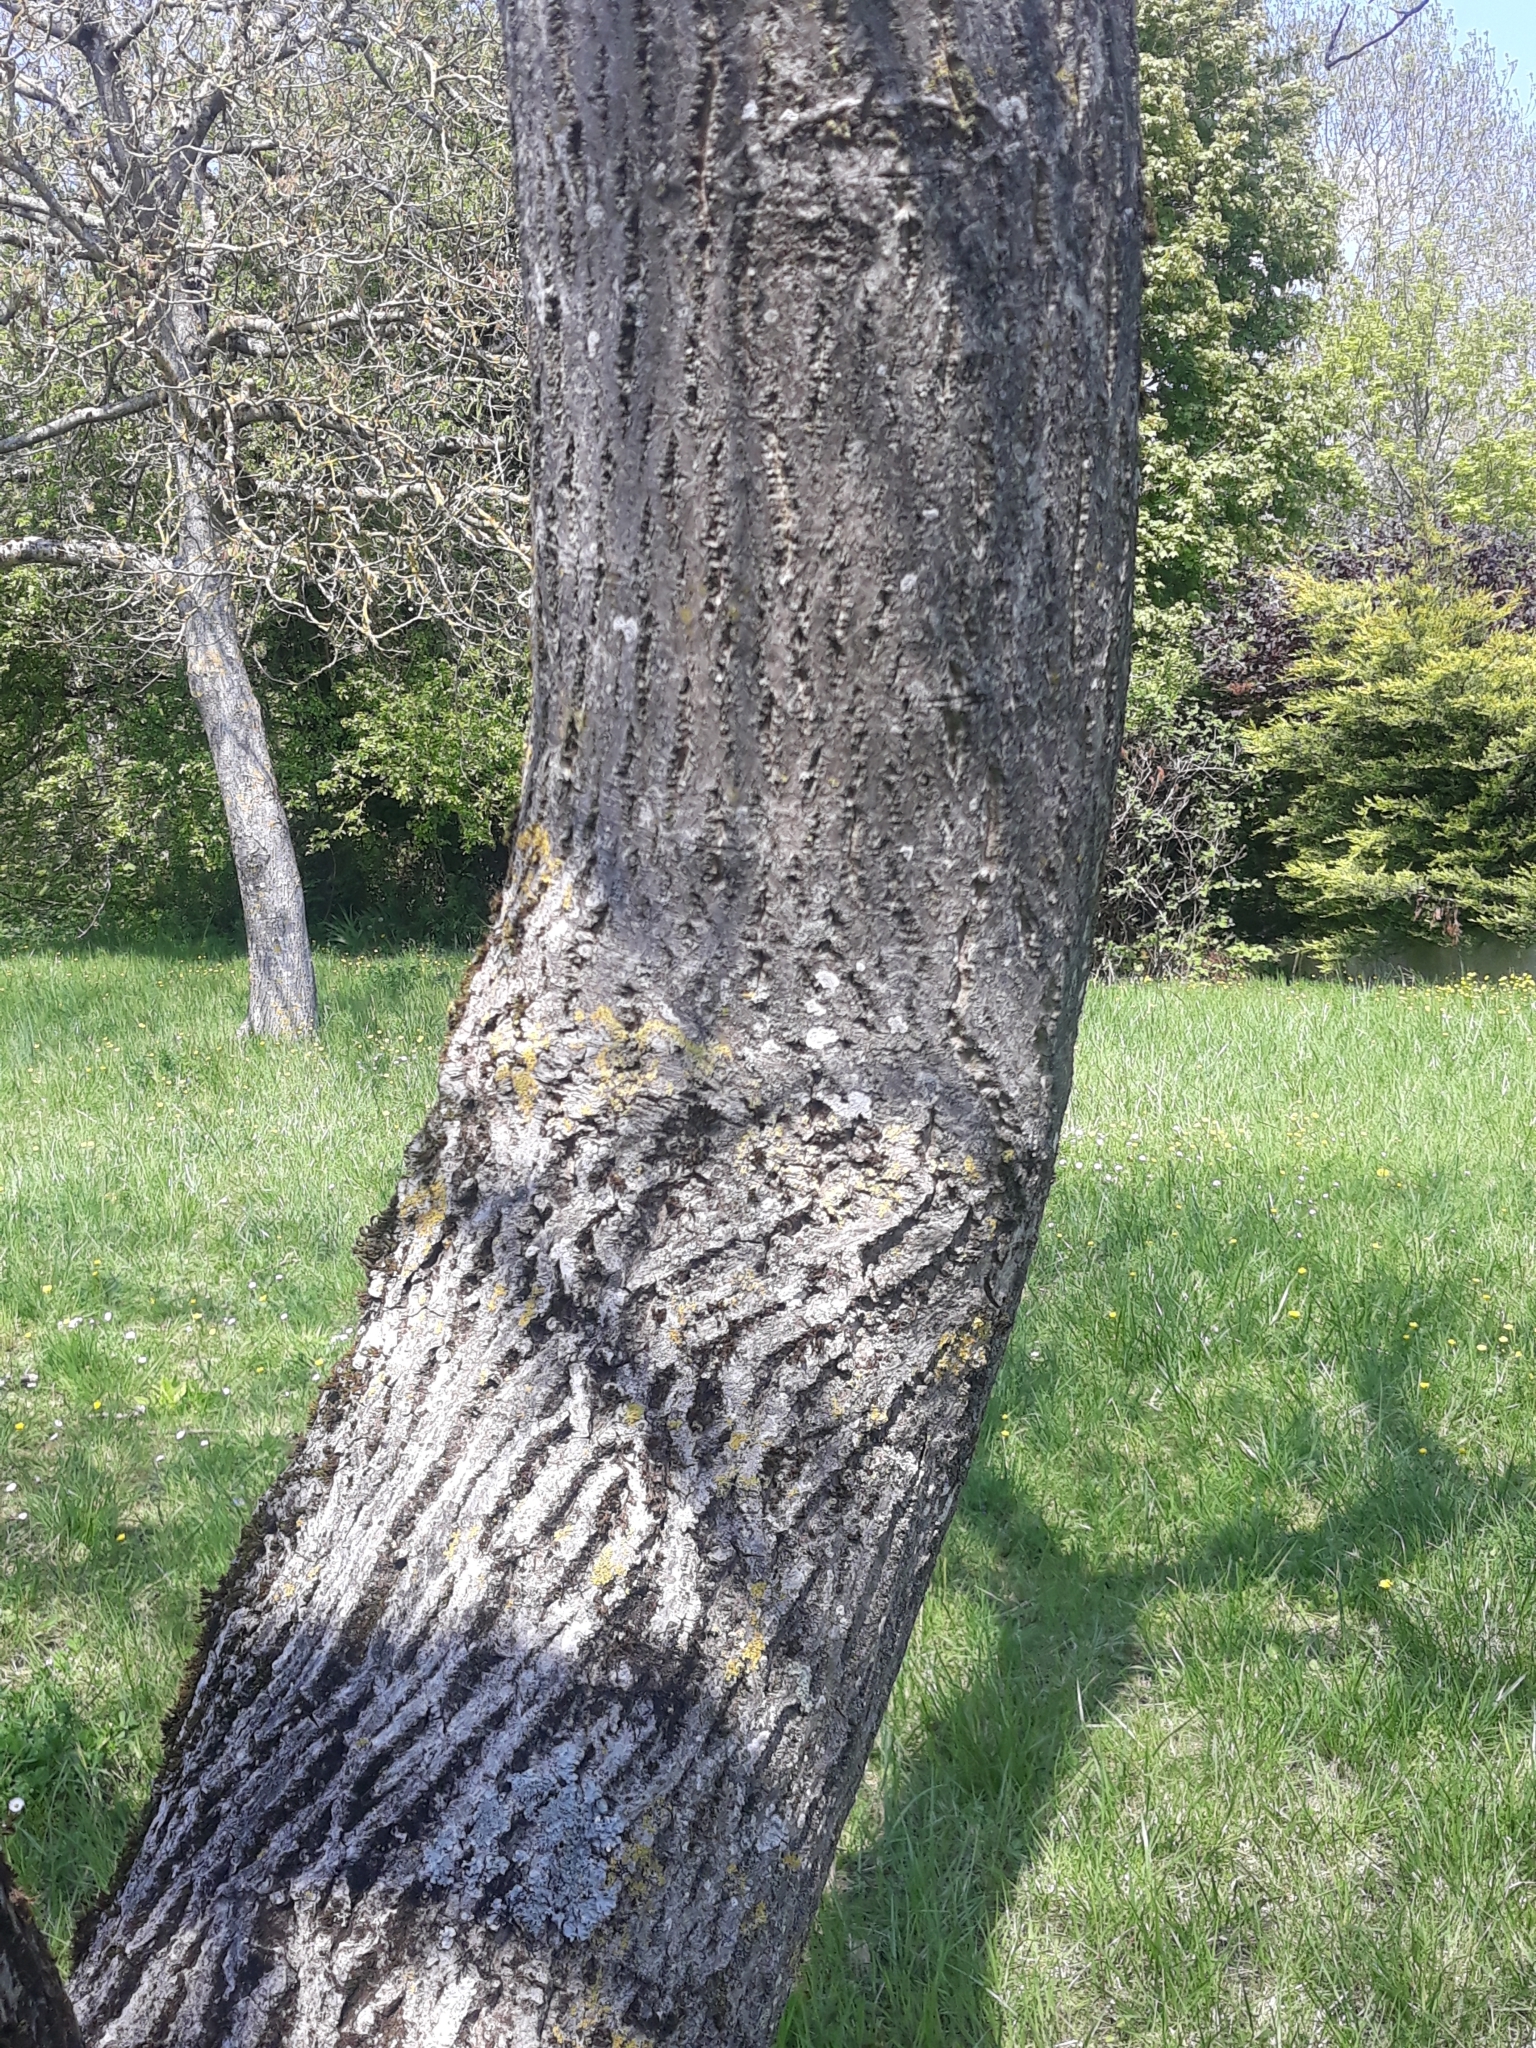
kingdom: Plantae
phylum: Tracheophyta
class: Magnoliopsida
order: Fagales
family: Juglandaceae
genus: Juglans
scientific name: Juglans regia
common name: Walnut
